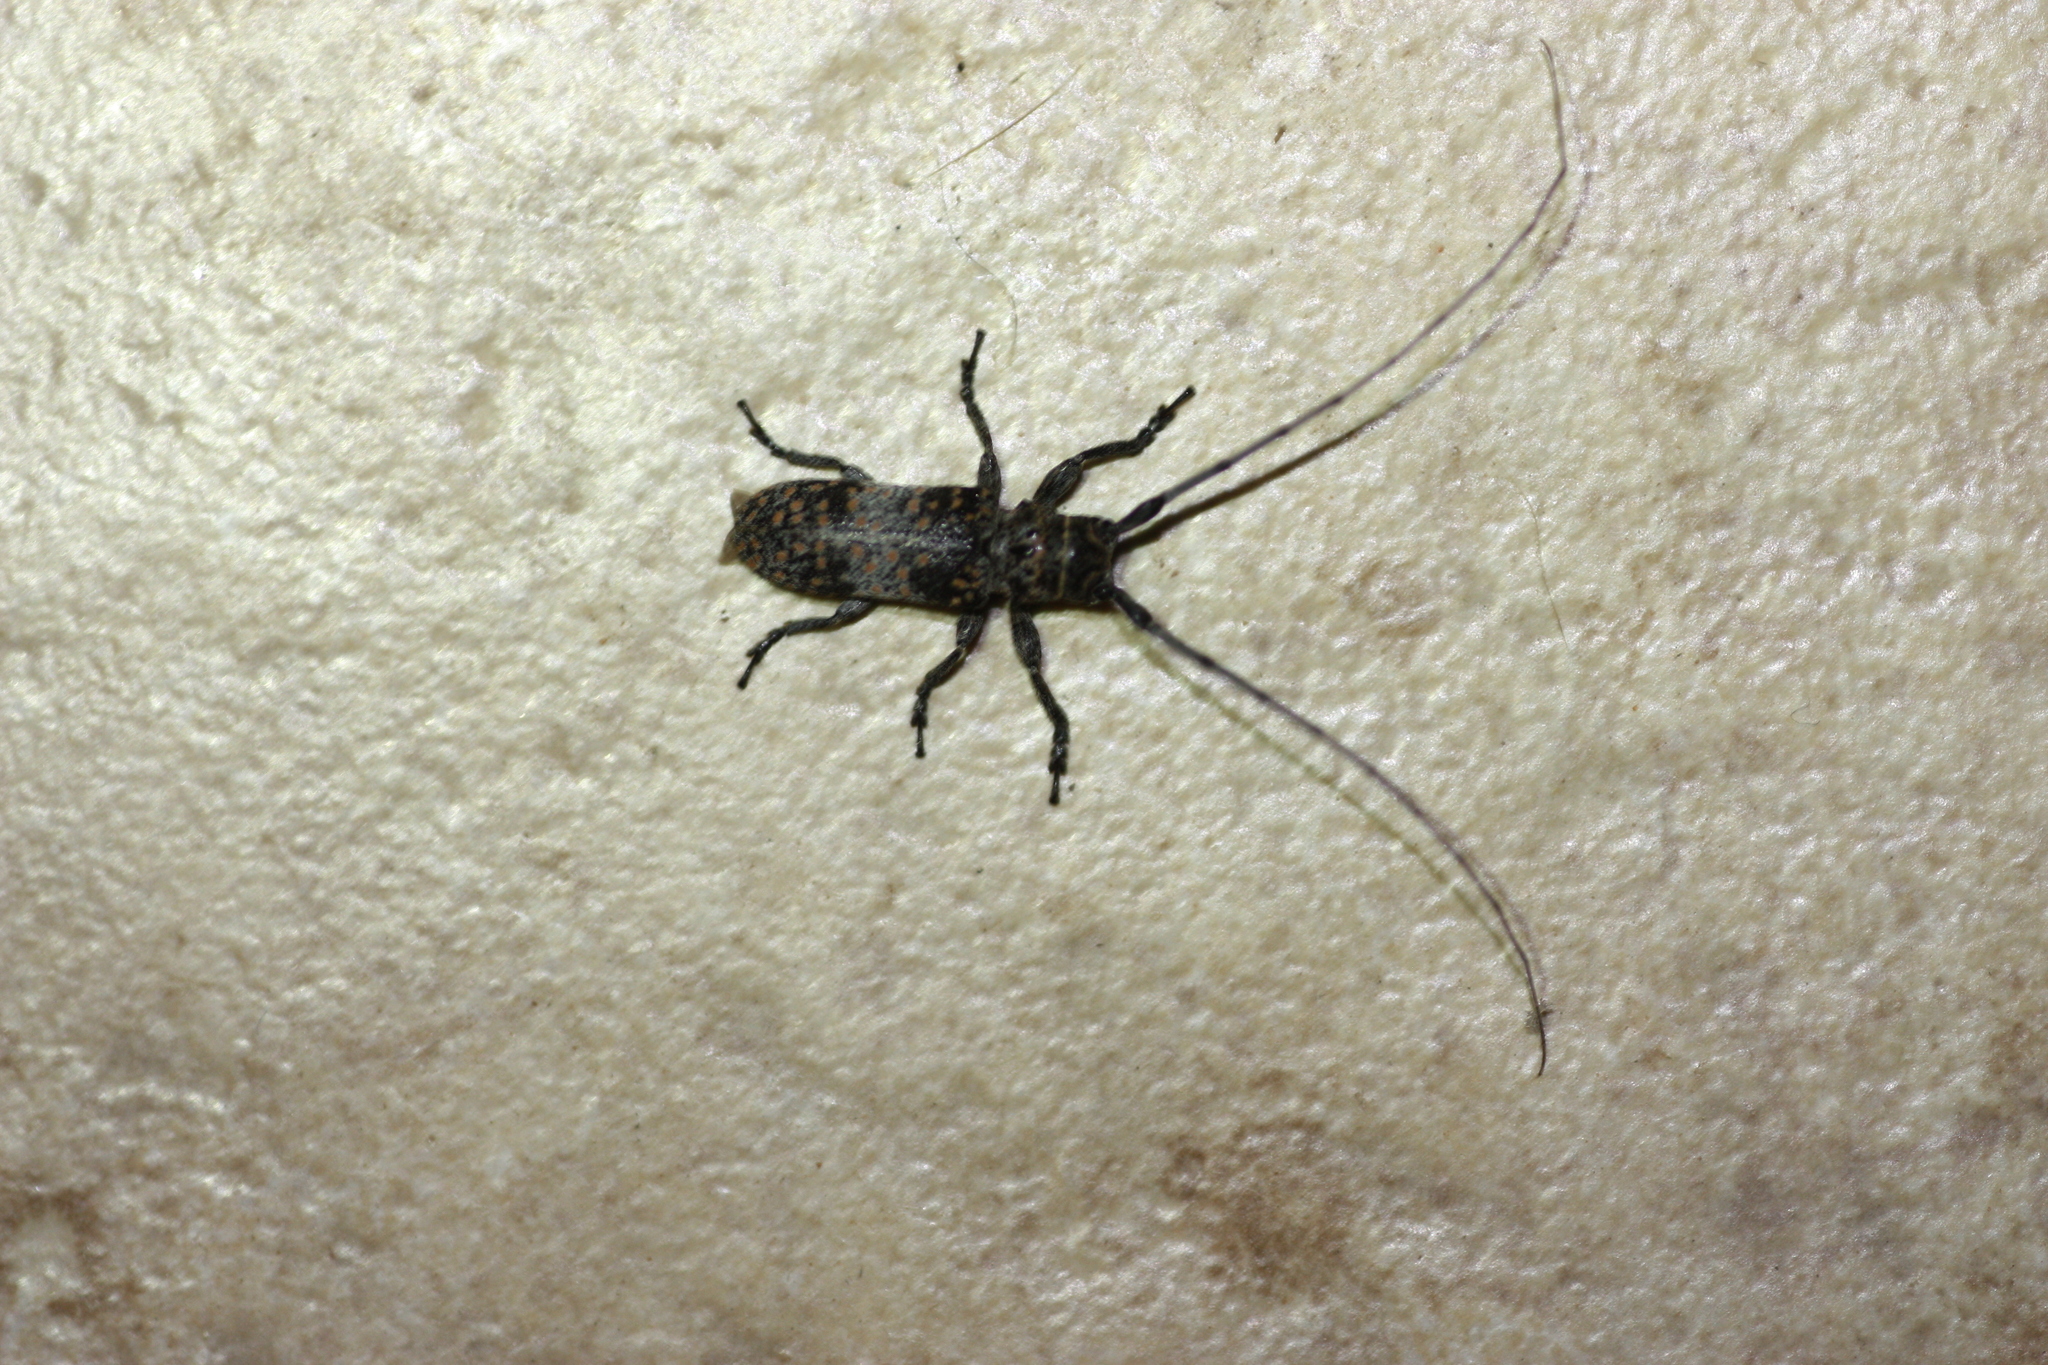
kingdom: Animalia
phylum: Arthropoda
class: Insecta
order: Coleoptera
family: Cerambycidae
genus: Oncideres
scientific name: Oncideres rhodosticta
